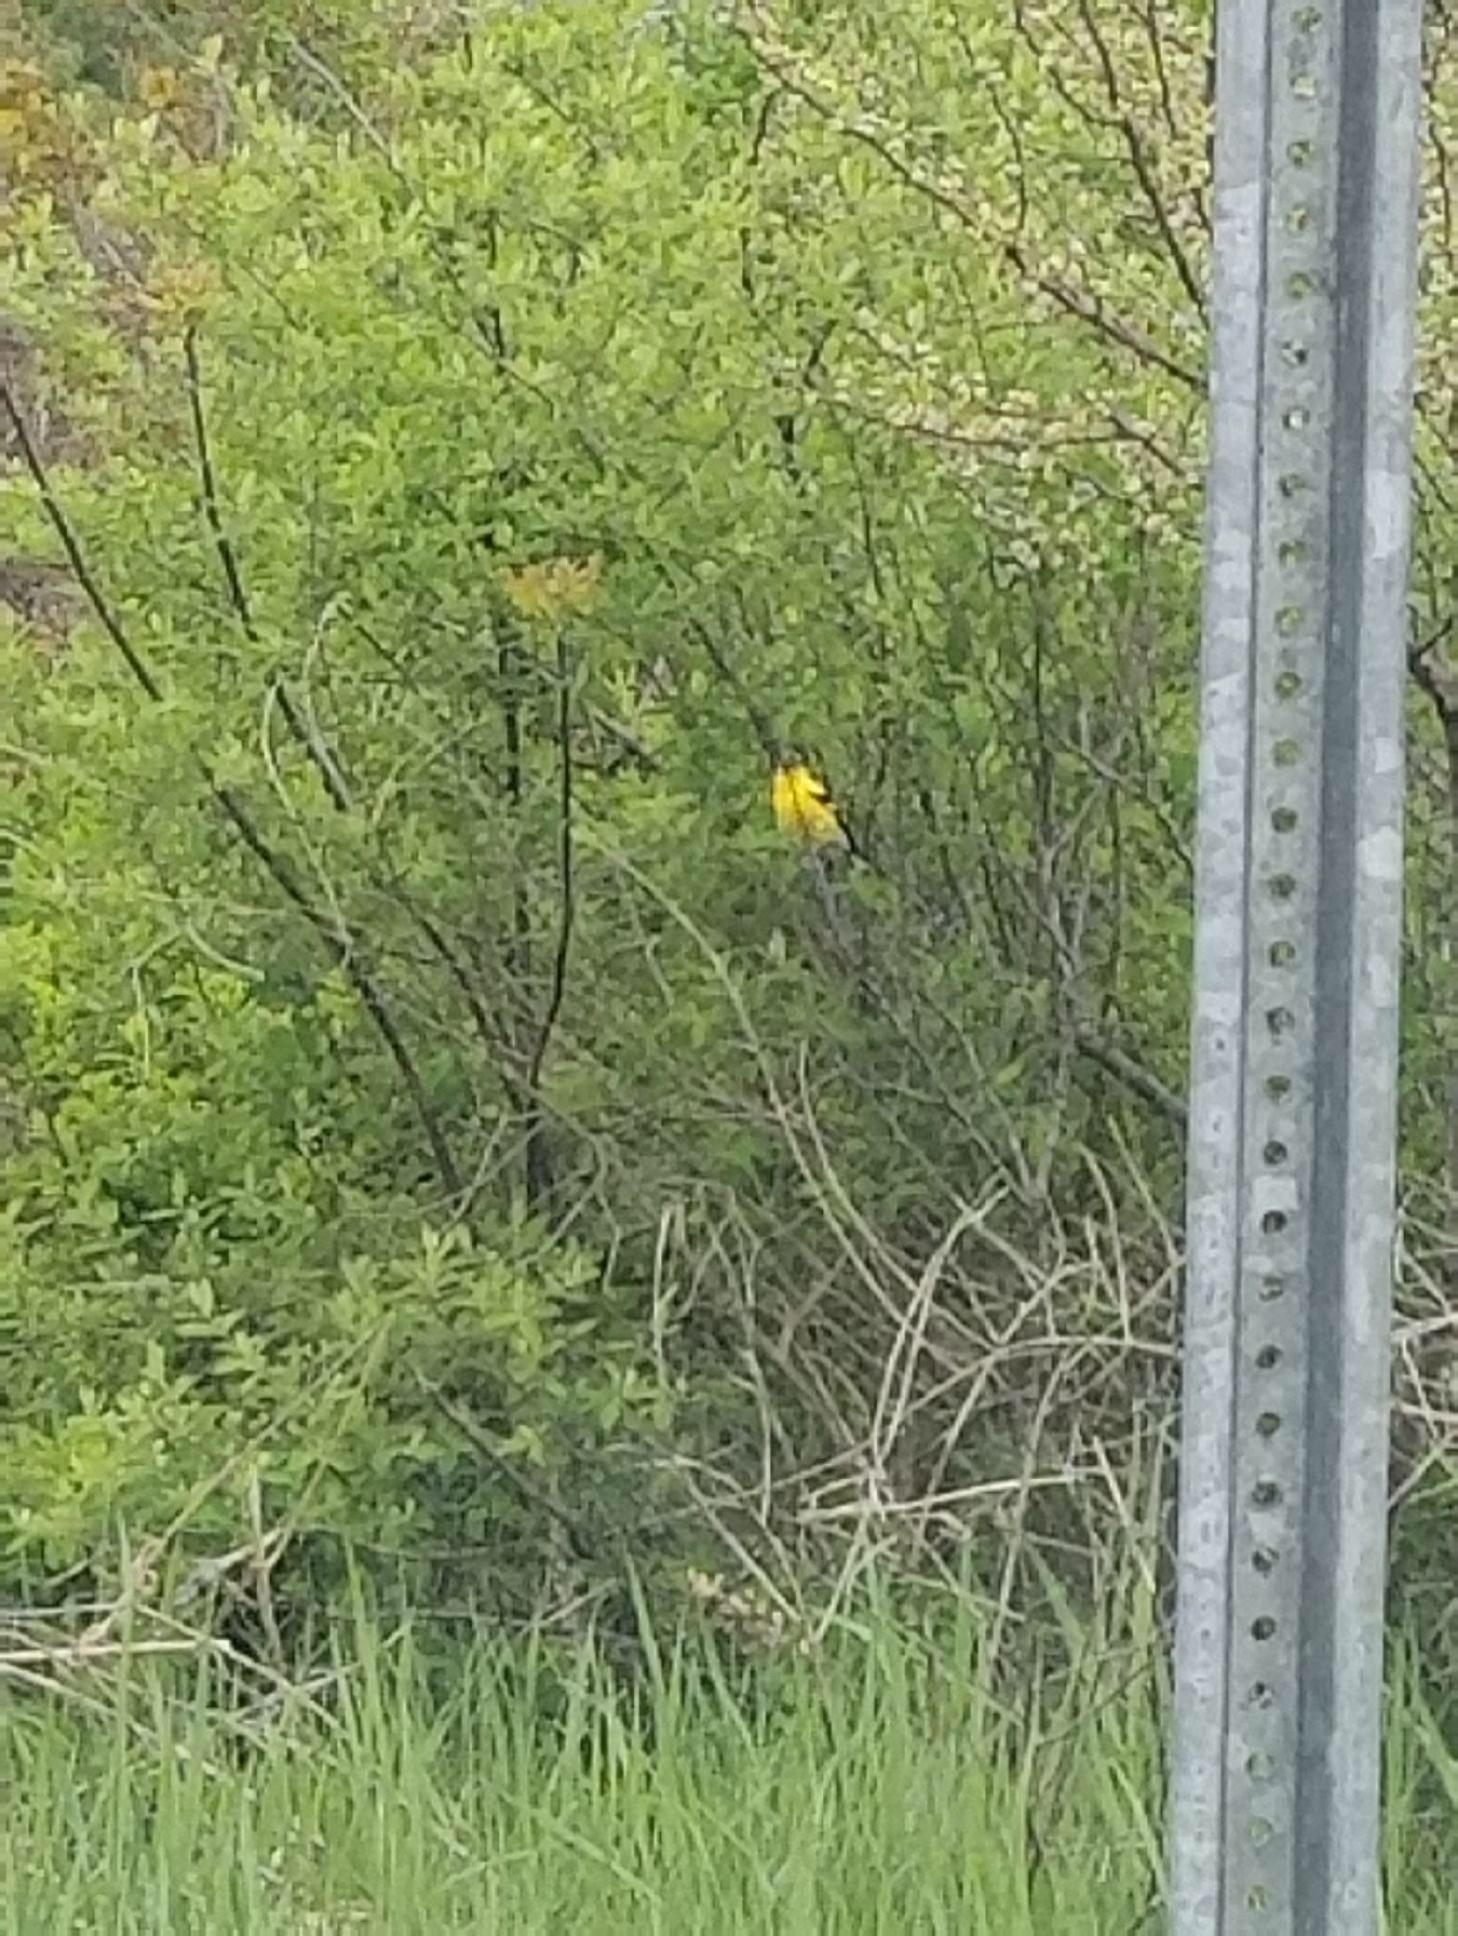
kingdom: Animalia
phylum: Chordata
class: Aves
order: Passeriformes
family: Fringillidae
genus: Spinus
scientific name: Spinus tristis
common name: American goldfinch
